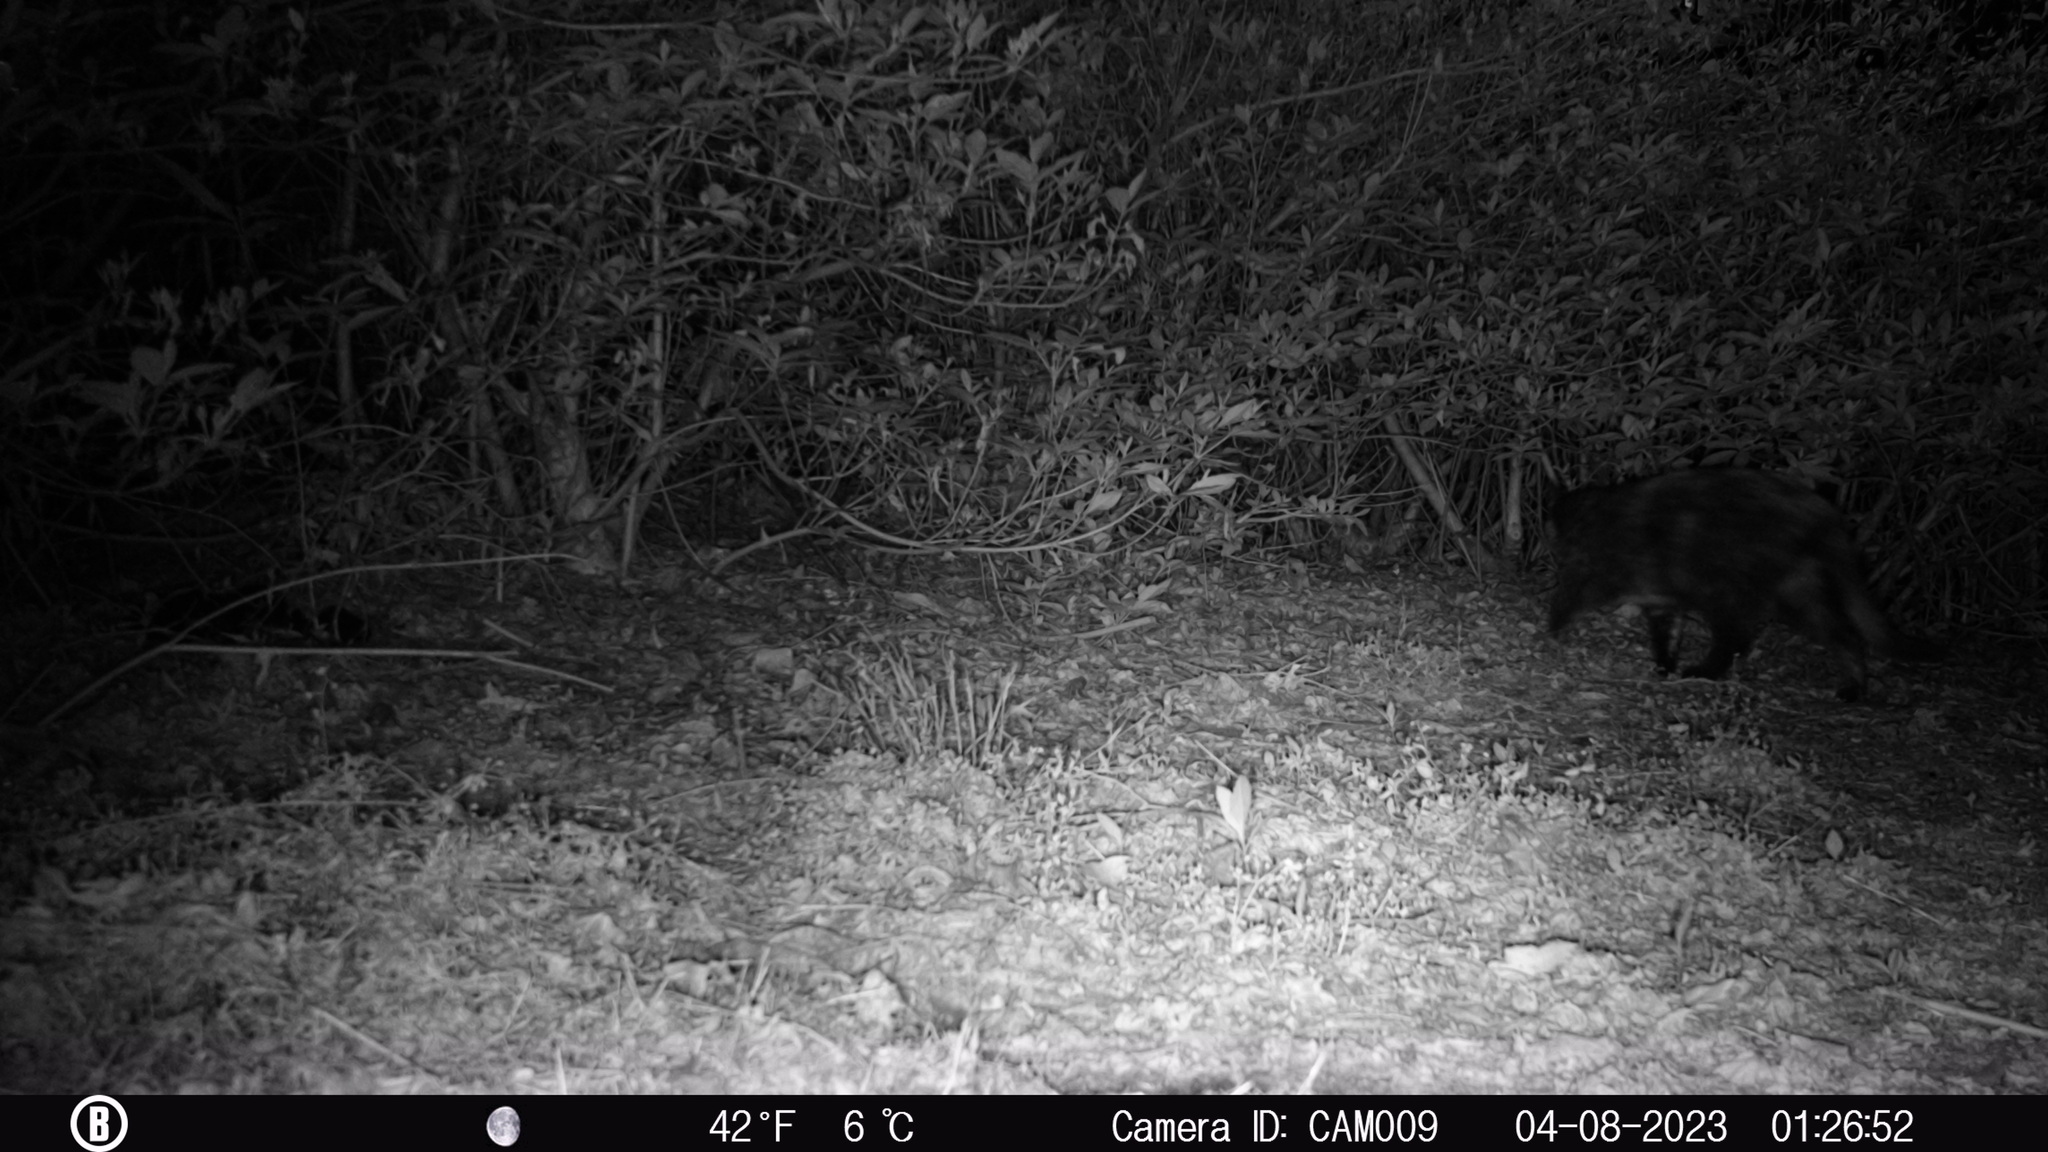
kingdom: Animalia
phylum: Chordata
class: Mammalia
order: Carnivora
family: Felidae
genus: Felis
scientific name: Felis catus
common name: Domestic cat
